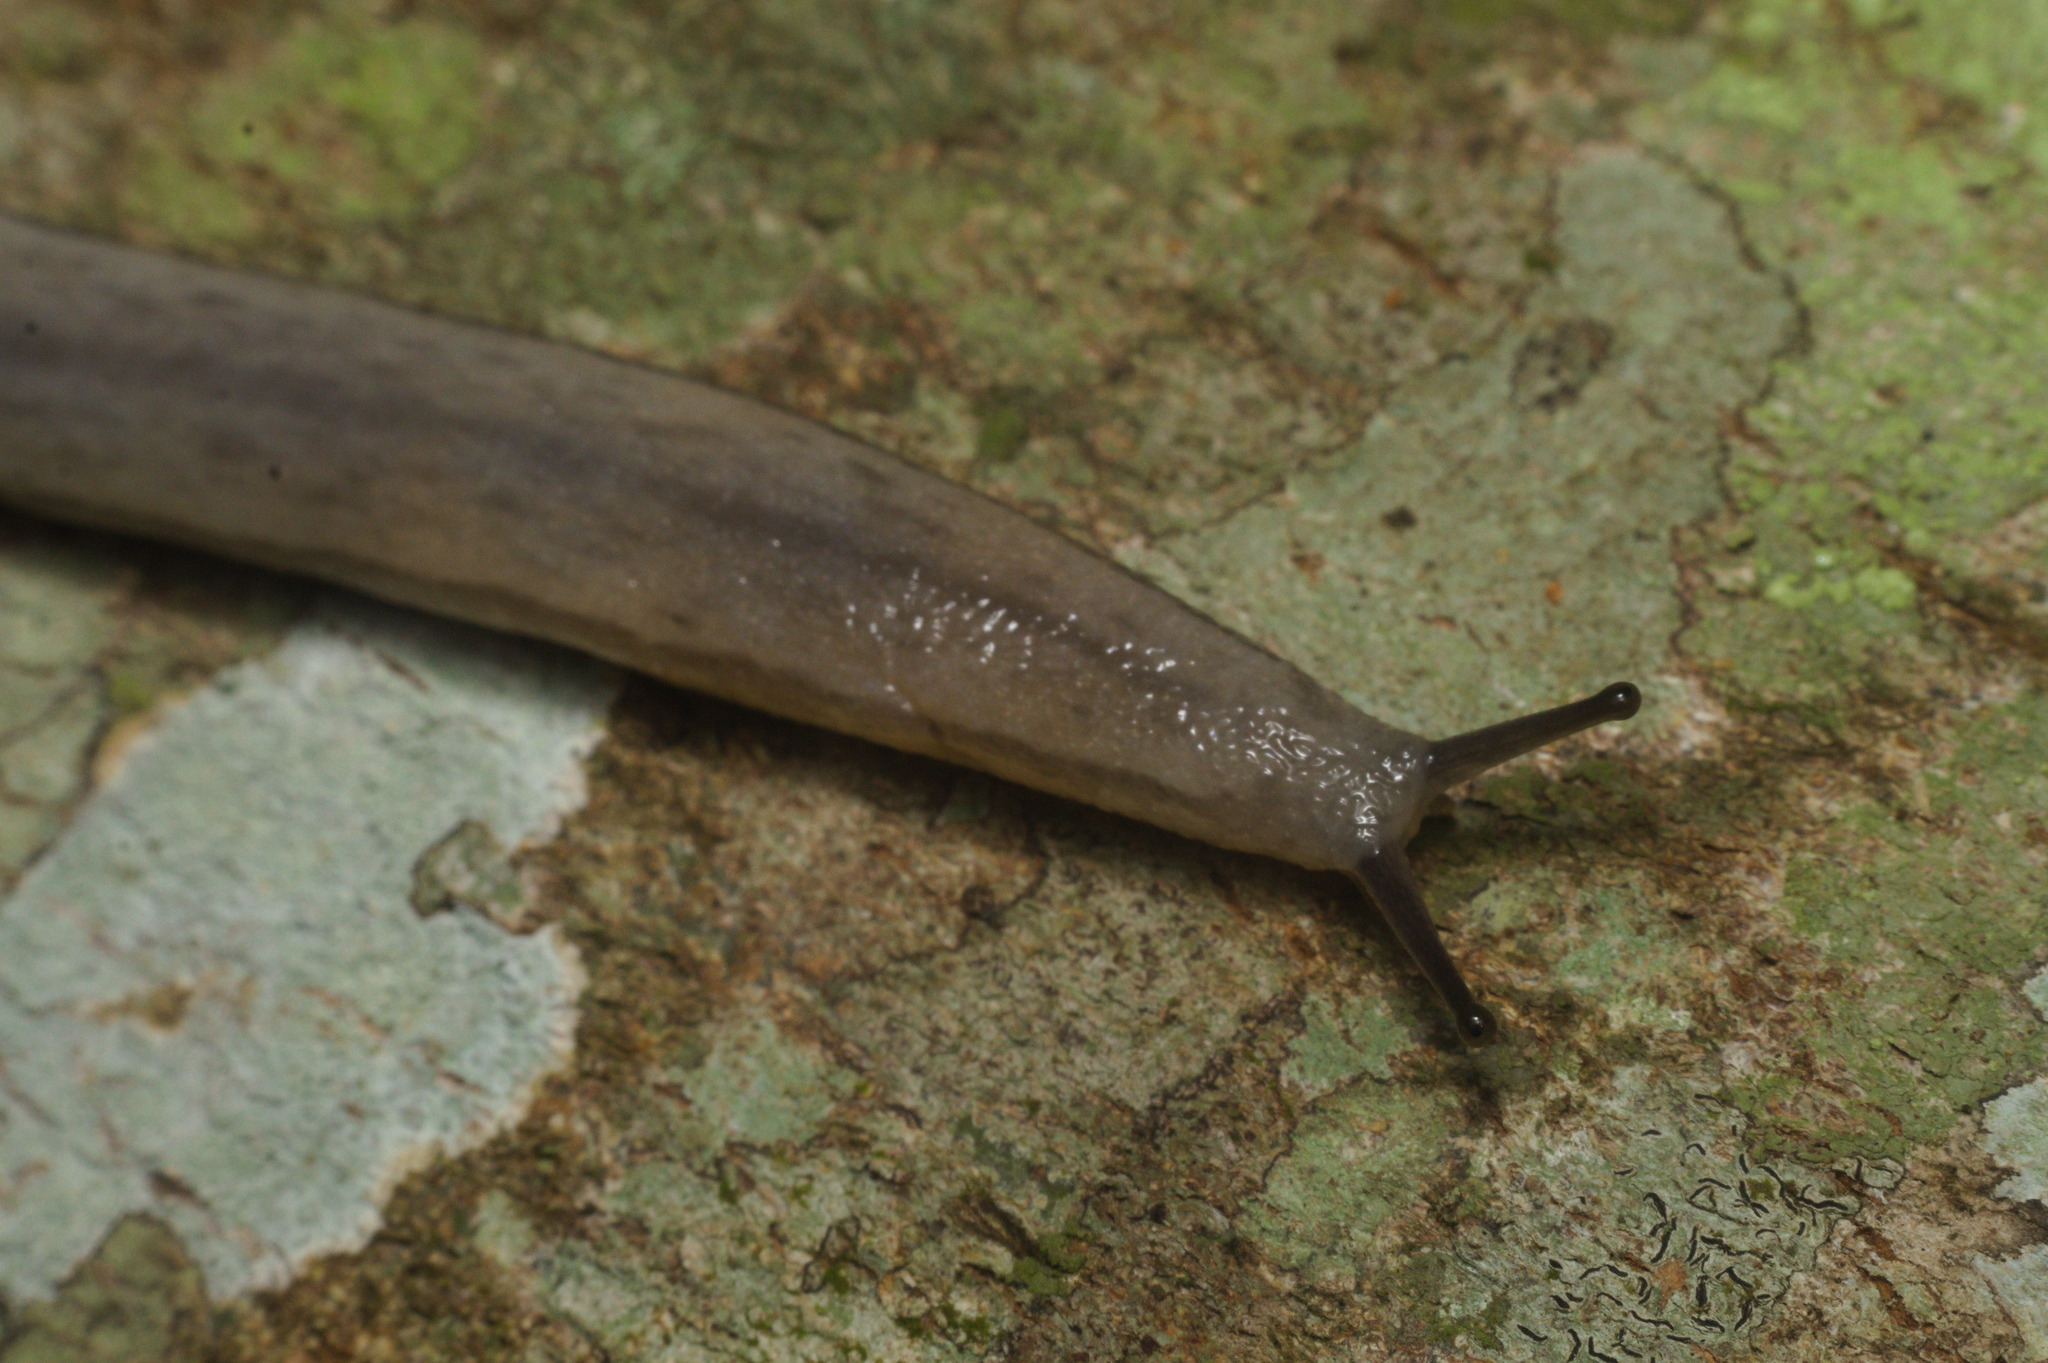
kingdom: Animalia
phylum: Mollusca
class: Gastropoda
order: Stylommatophora
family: Philomycidae
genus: Meghimatium
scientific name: Meghimatium pictum
